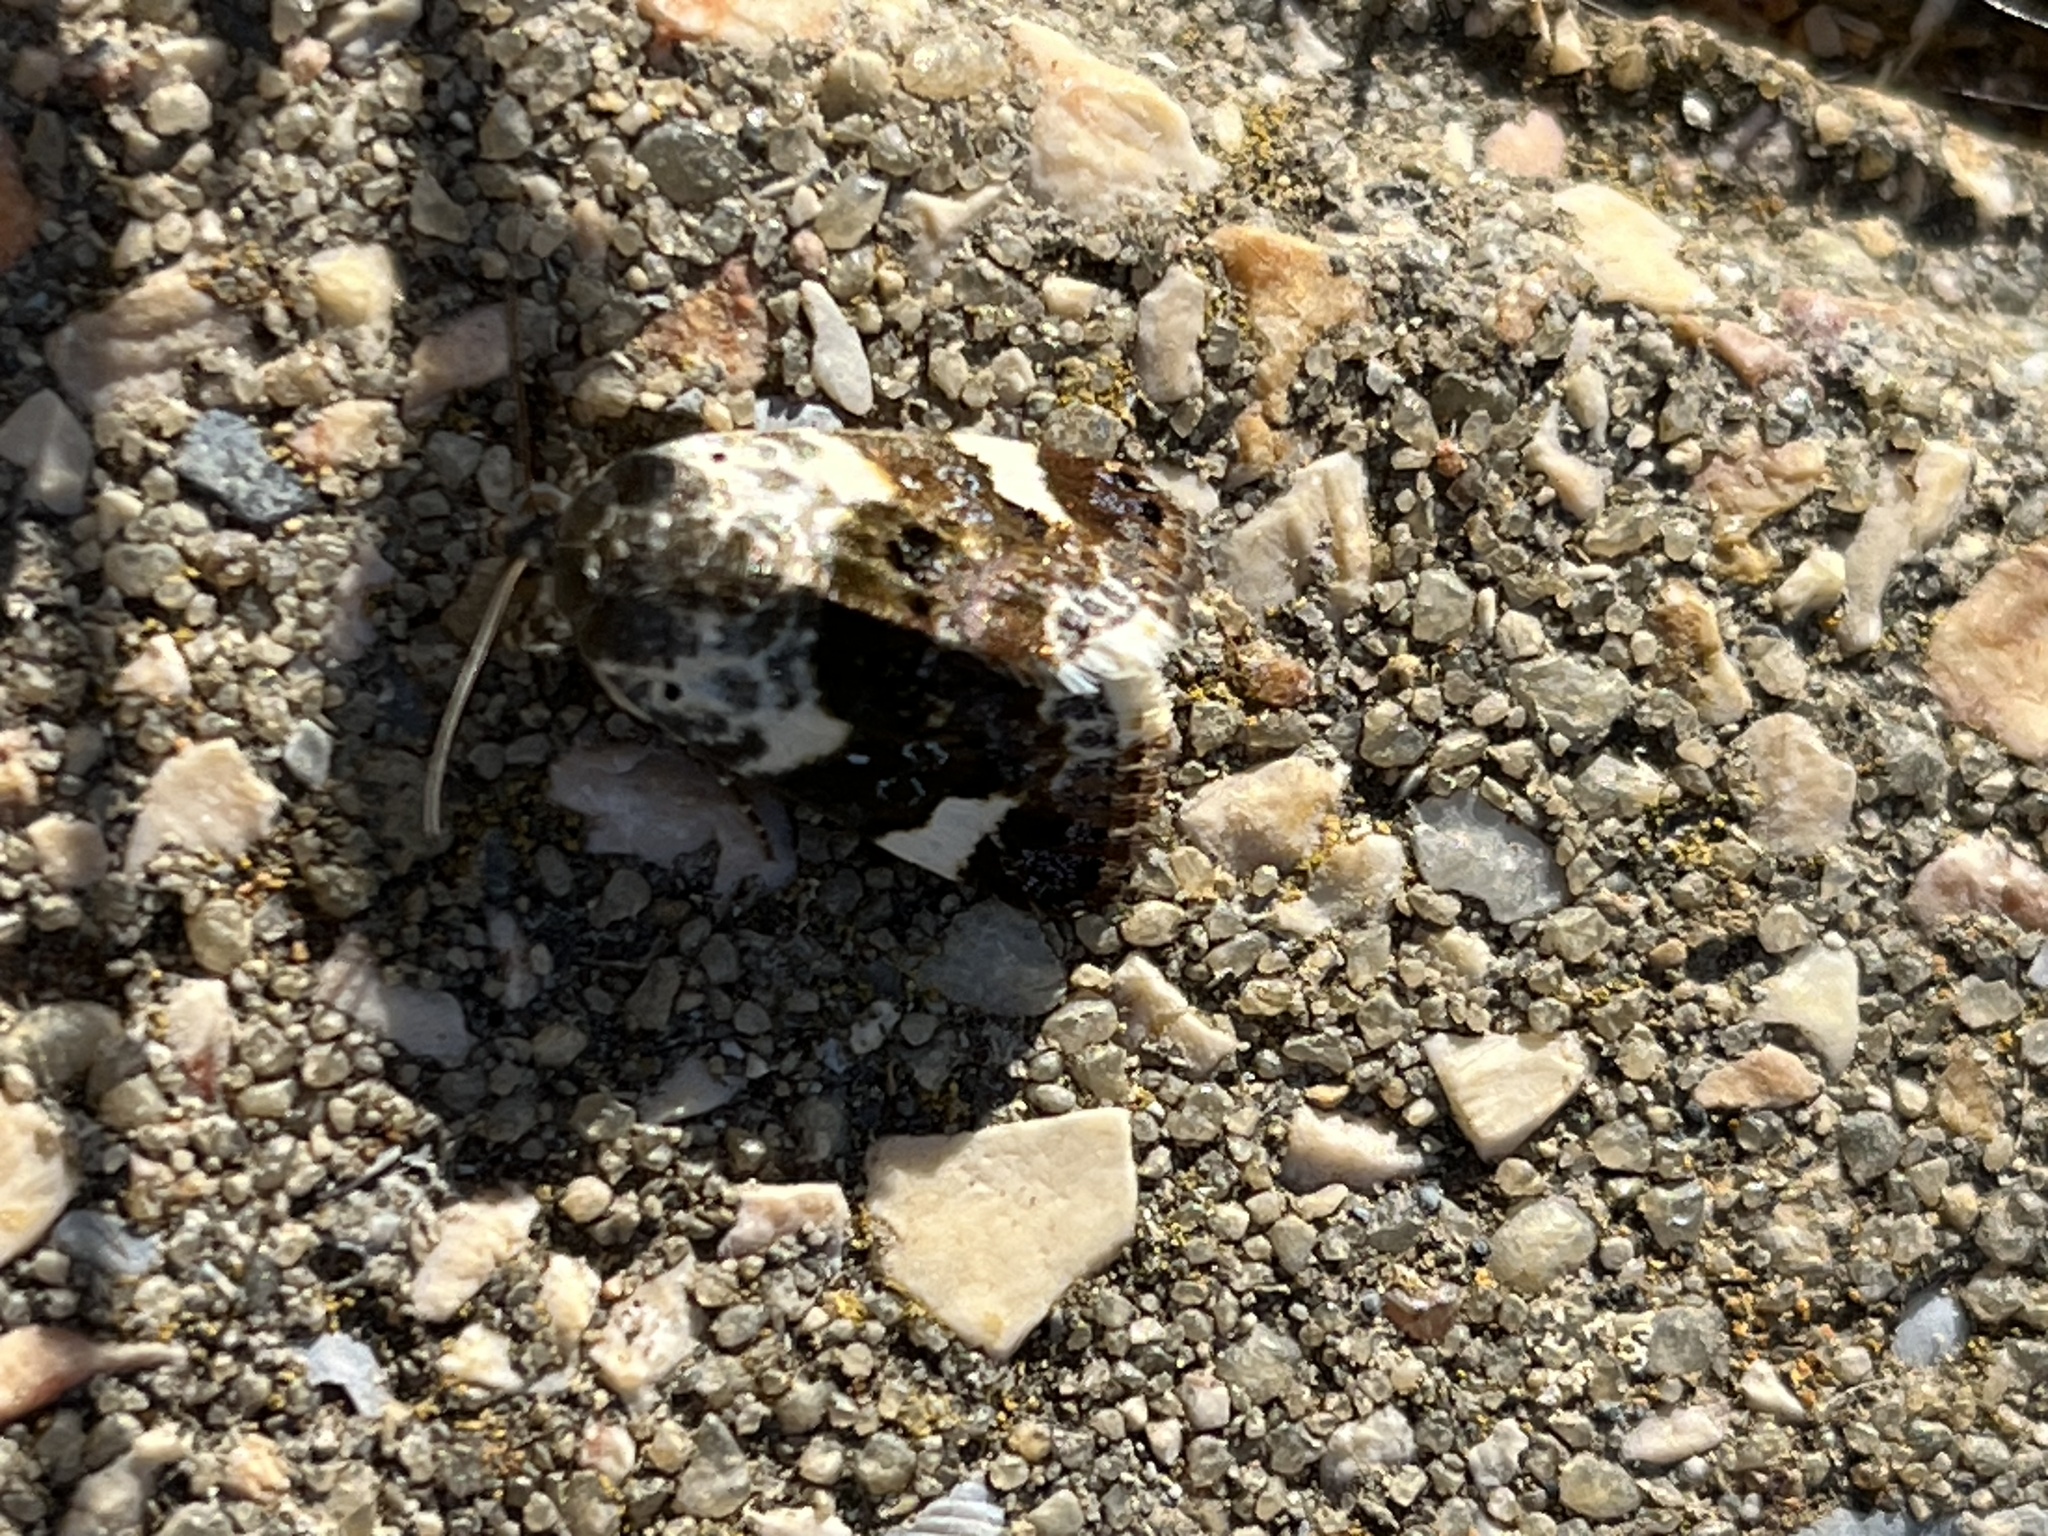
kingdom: Animalia
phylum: Arthropoda
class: Insecta
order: Lepidoptera
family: Noctuidae
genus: Acontia
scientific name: Acontia lucida
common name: Pale shoulder
